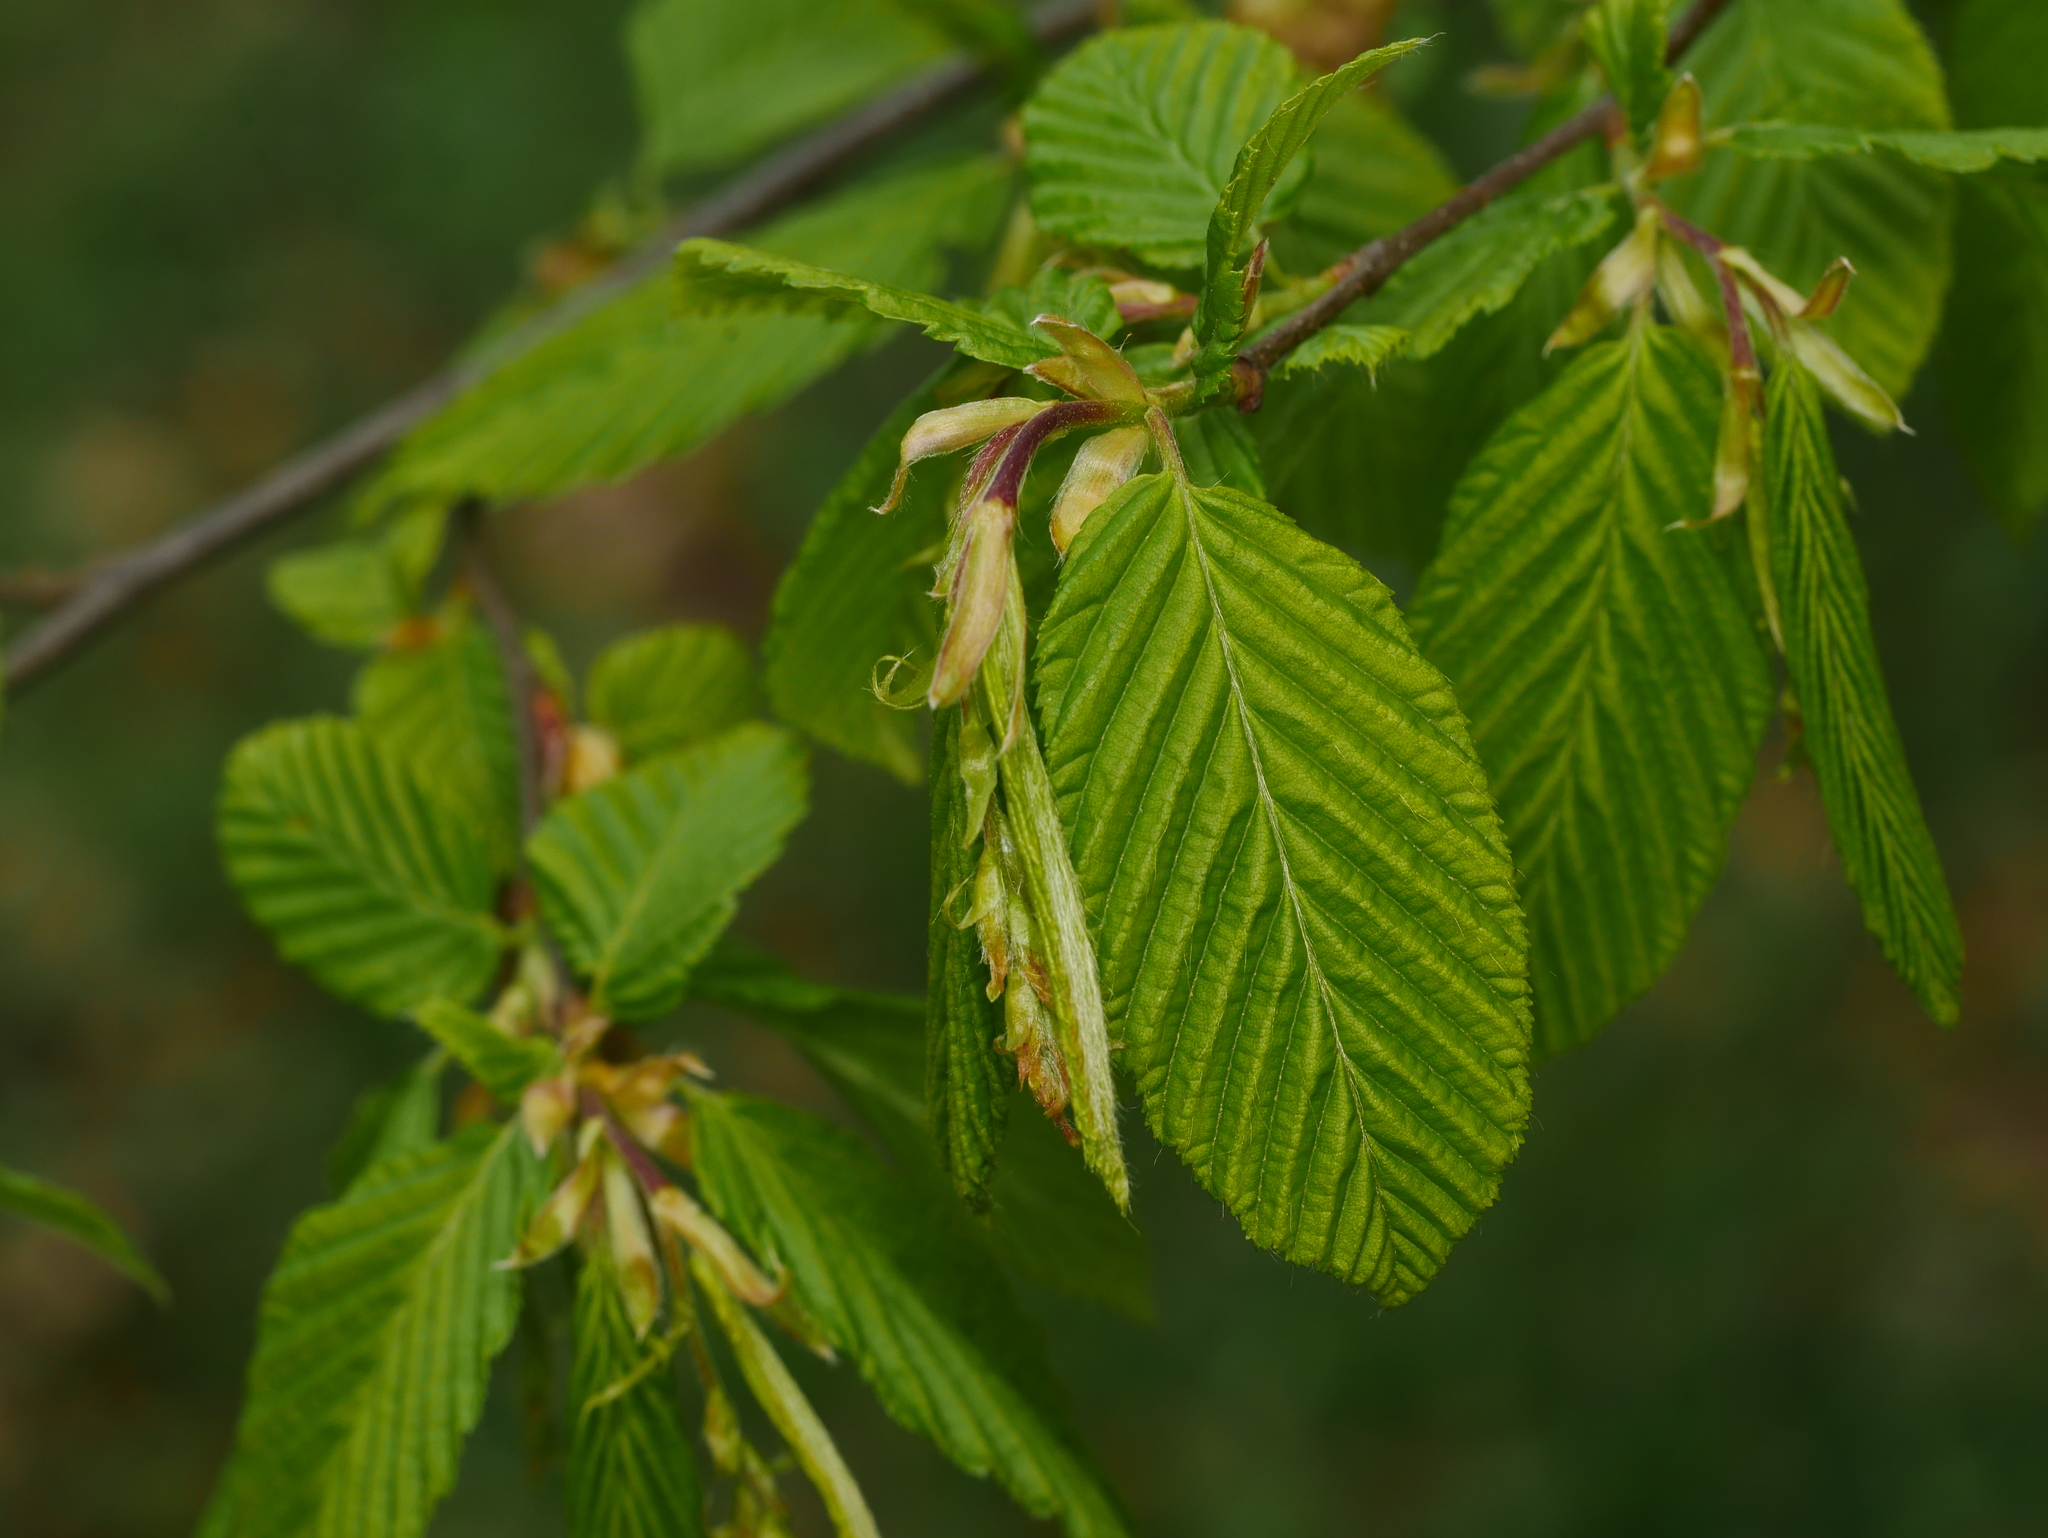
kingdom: Plantae
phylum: Tracheophyta
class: Magnoliopsida
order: Fagales
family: Betulaceae
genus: Carpinus
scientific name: Carpinus betulus
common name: Hornbeam
